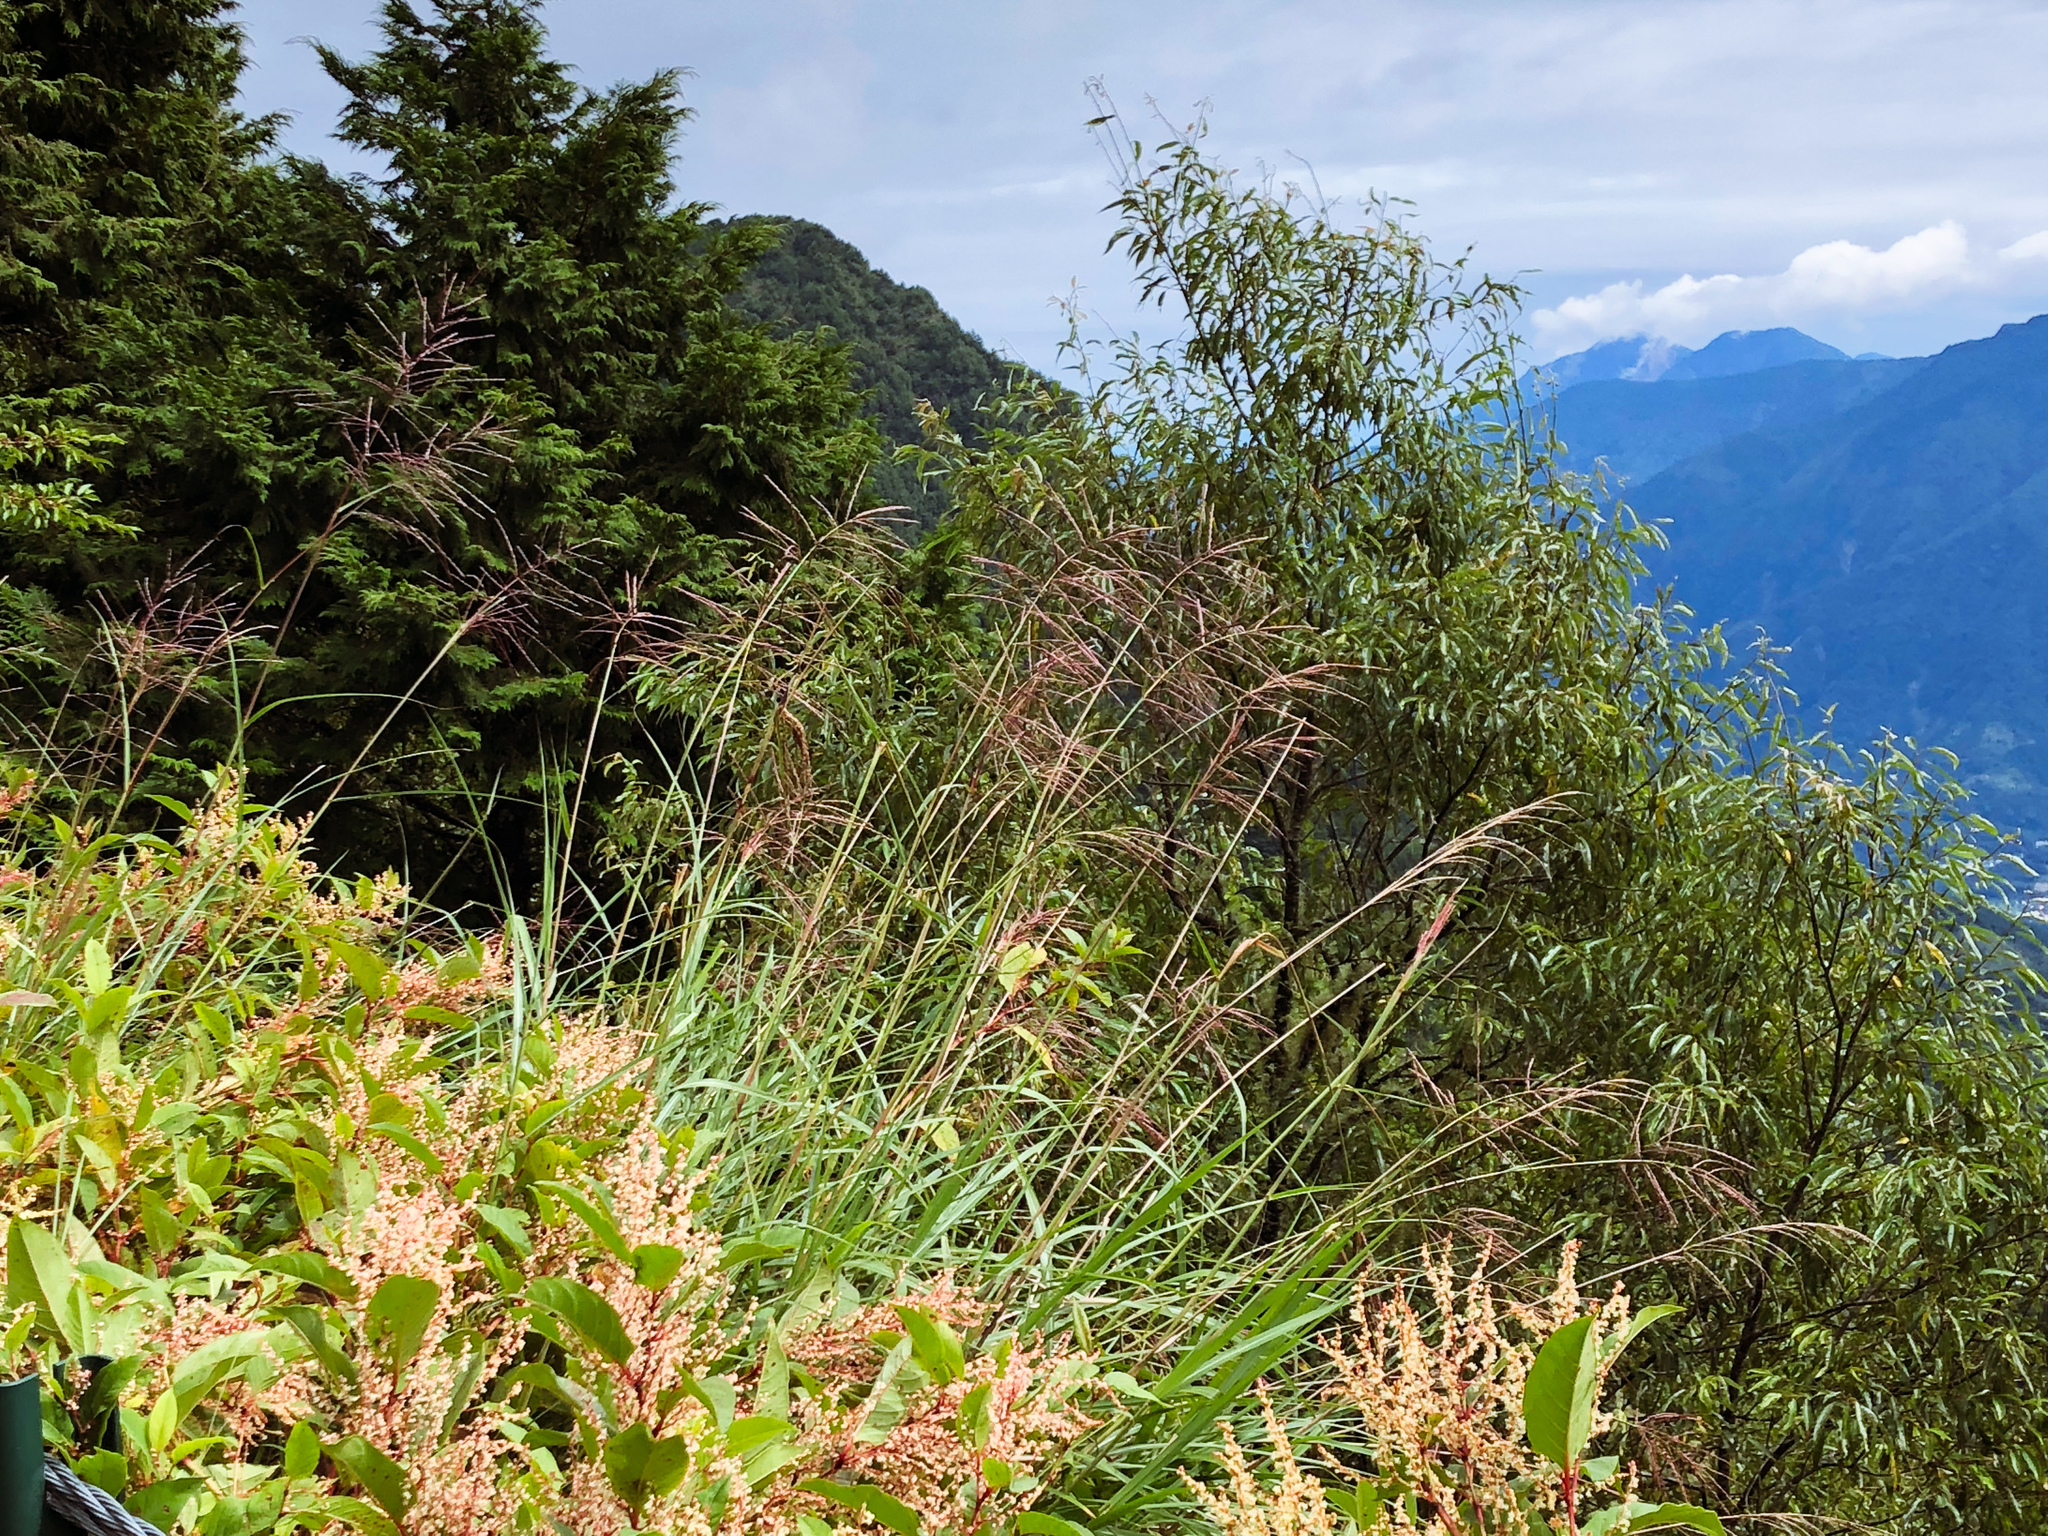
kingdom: Plantae
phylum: Tracheophyta
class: Liliopsida
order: Poales
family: Poaceae
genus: Miscanthus
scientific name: Miscanthus sinensis
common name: Chinese silvergrass
